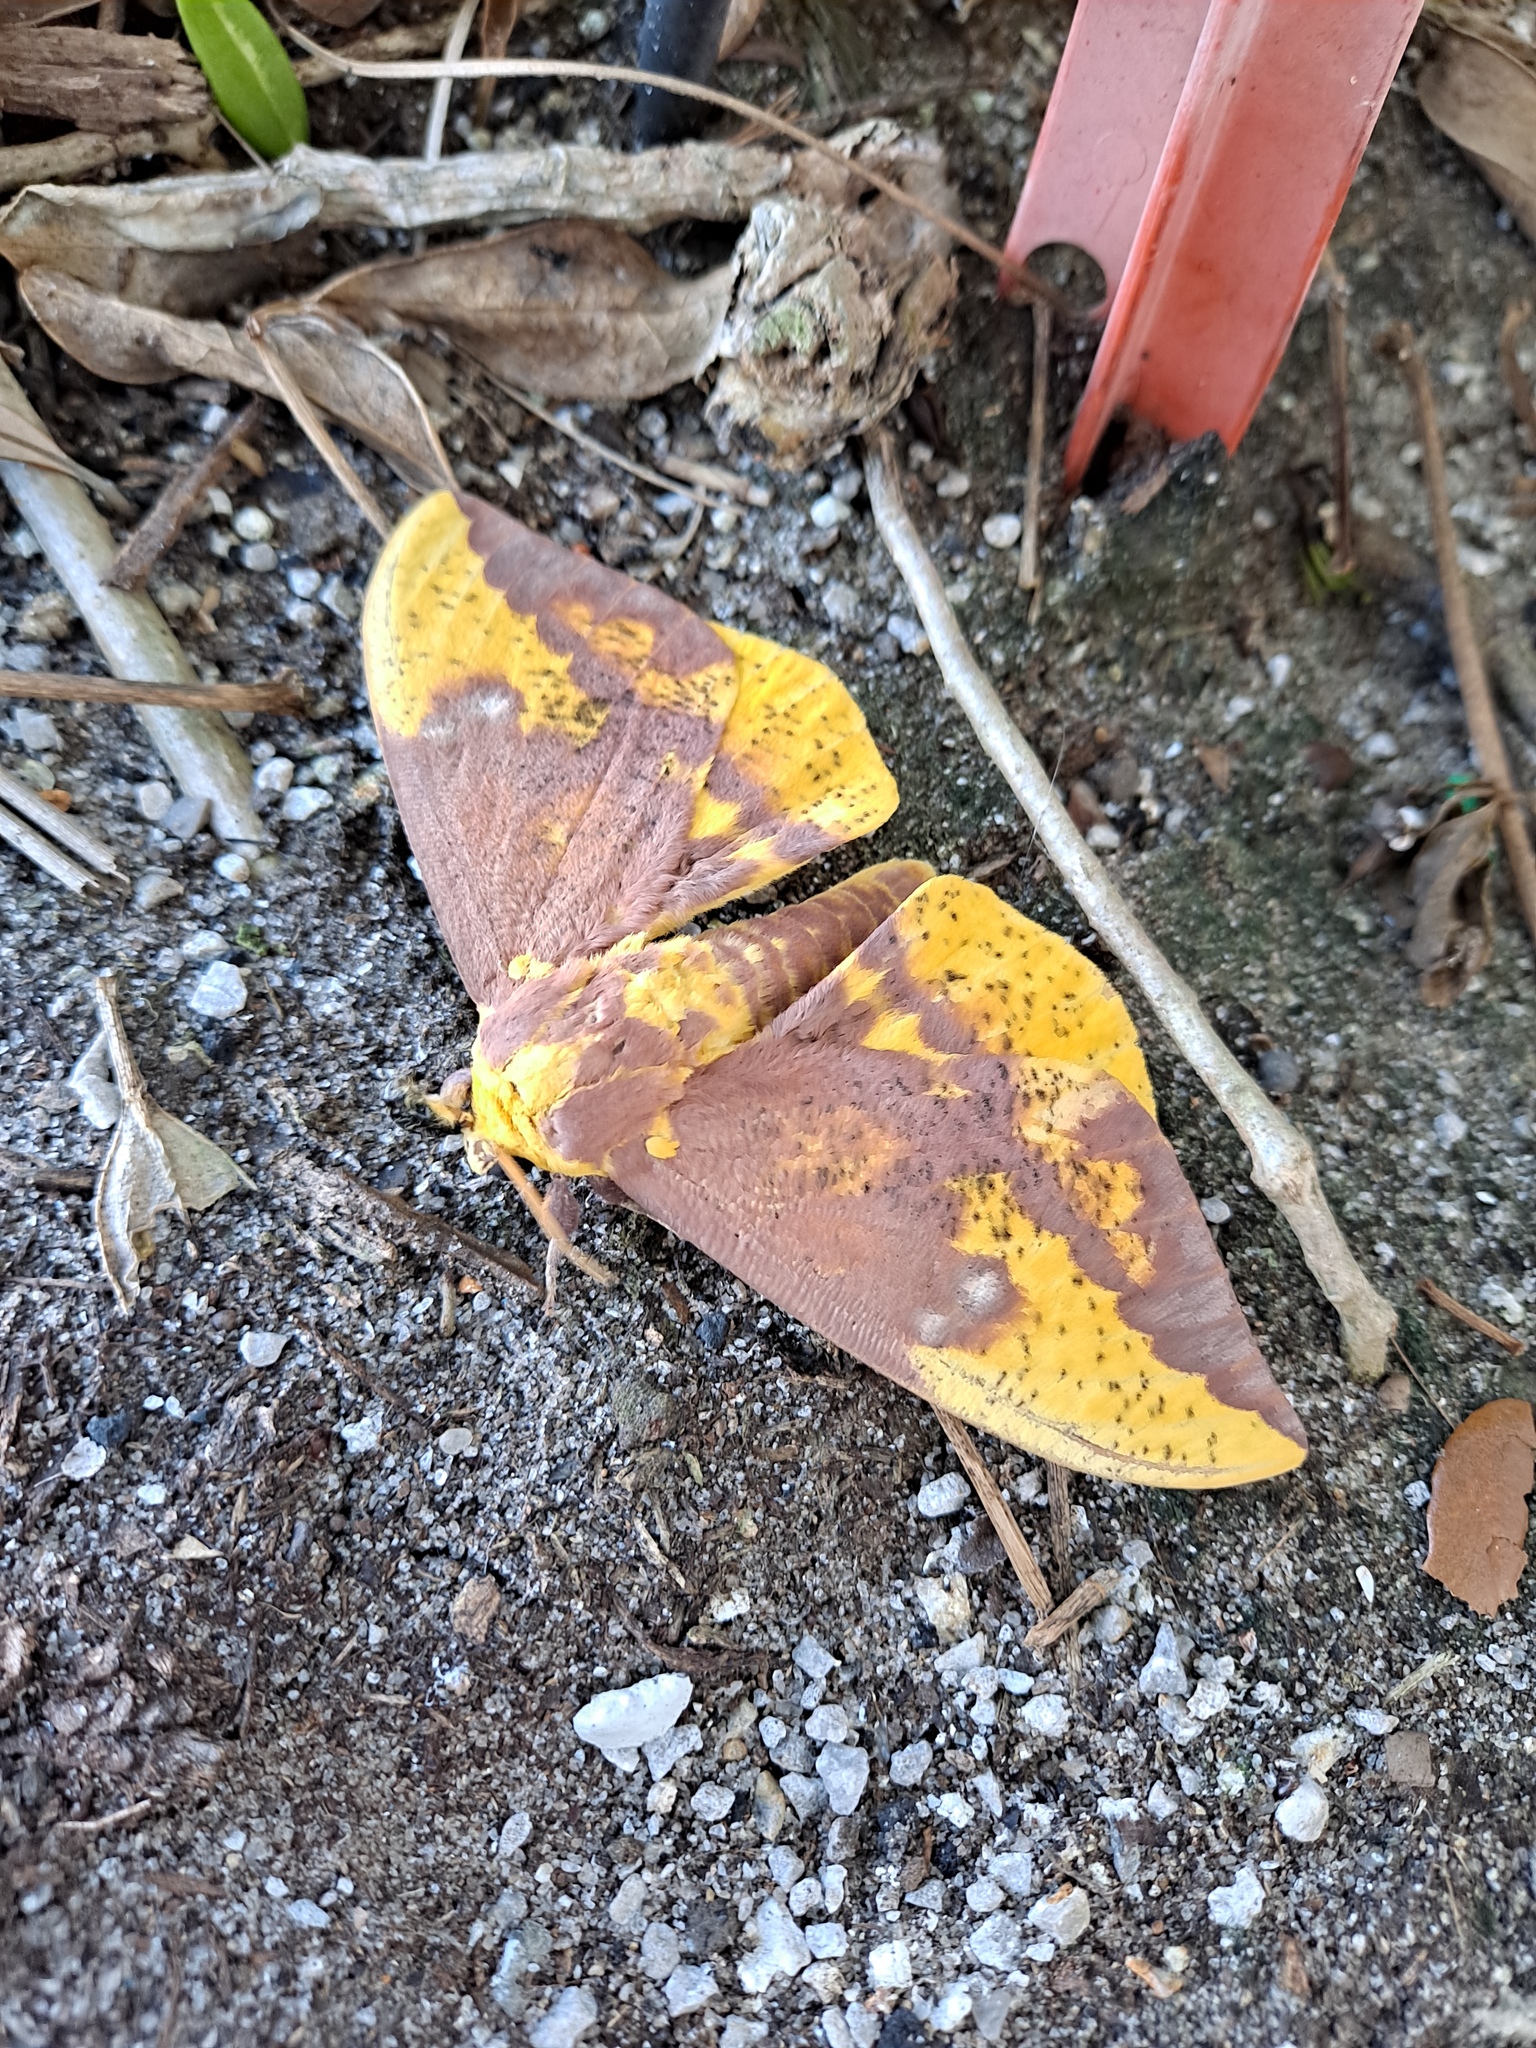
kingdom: Animalia
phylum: Arthropoda
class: Insecta
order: Lepidoptera
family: Saturniidae
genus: Eacles
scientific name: Eacles imperialis
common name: Imperial moth
